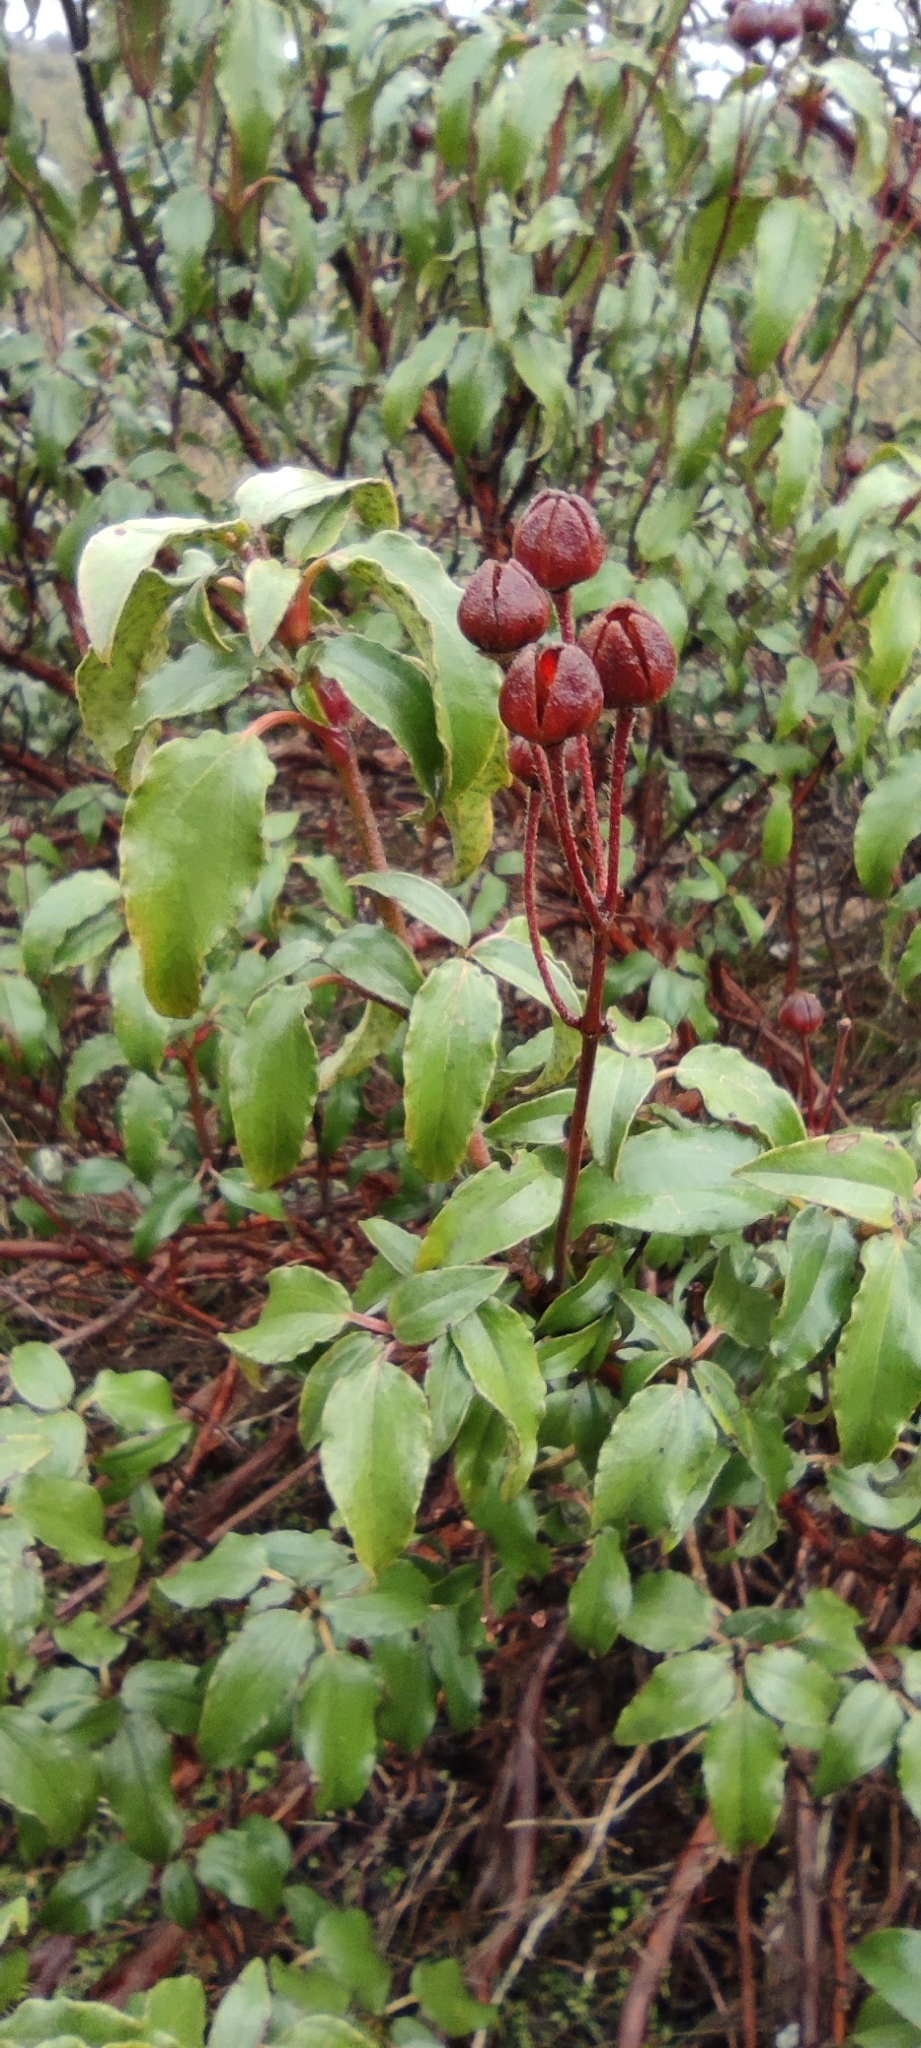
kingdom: Plantae
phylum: Tracheophyta
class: Magnoliopsida
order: Malvales
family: Cistaceae
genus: Cistus
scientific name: Cistus laurifolius
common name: Laurel-leaved cistus
